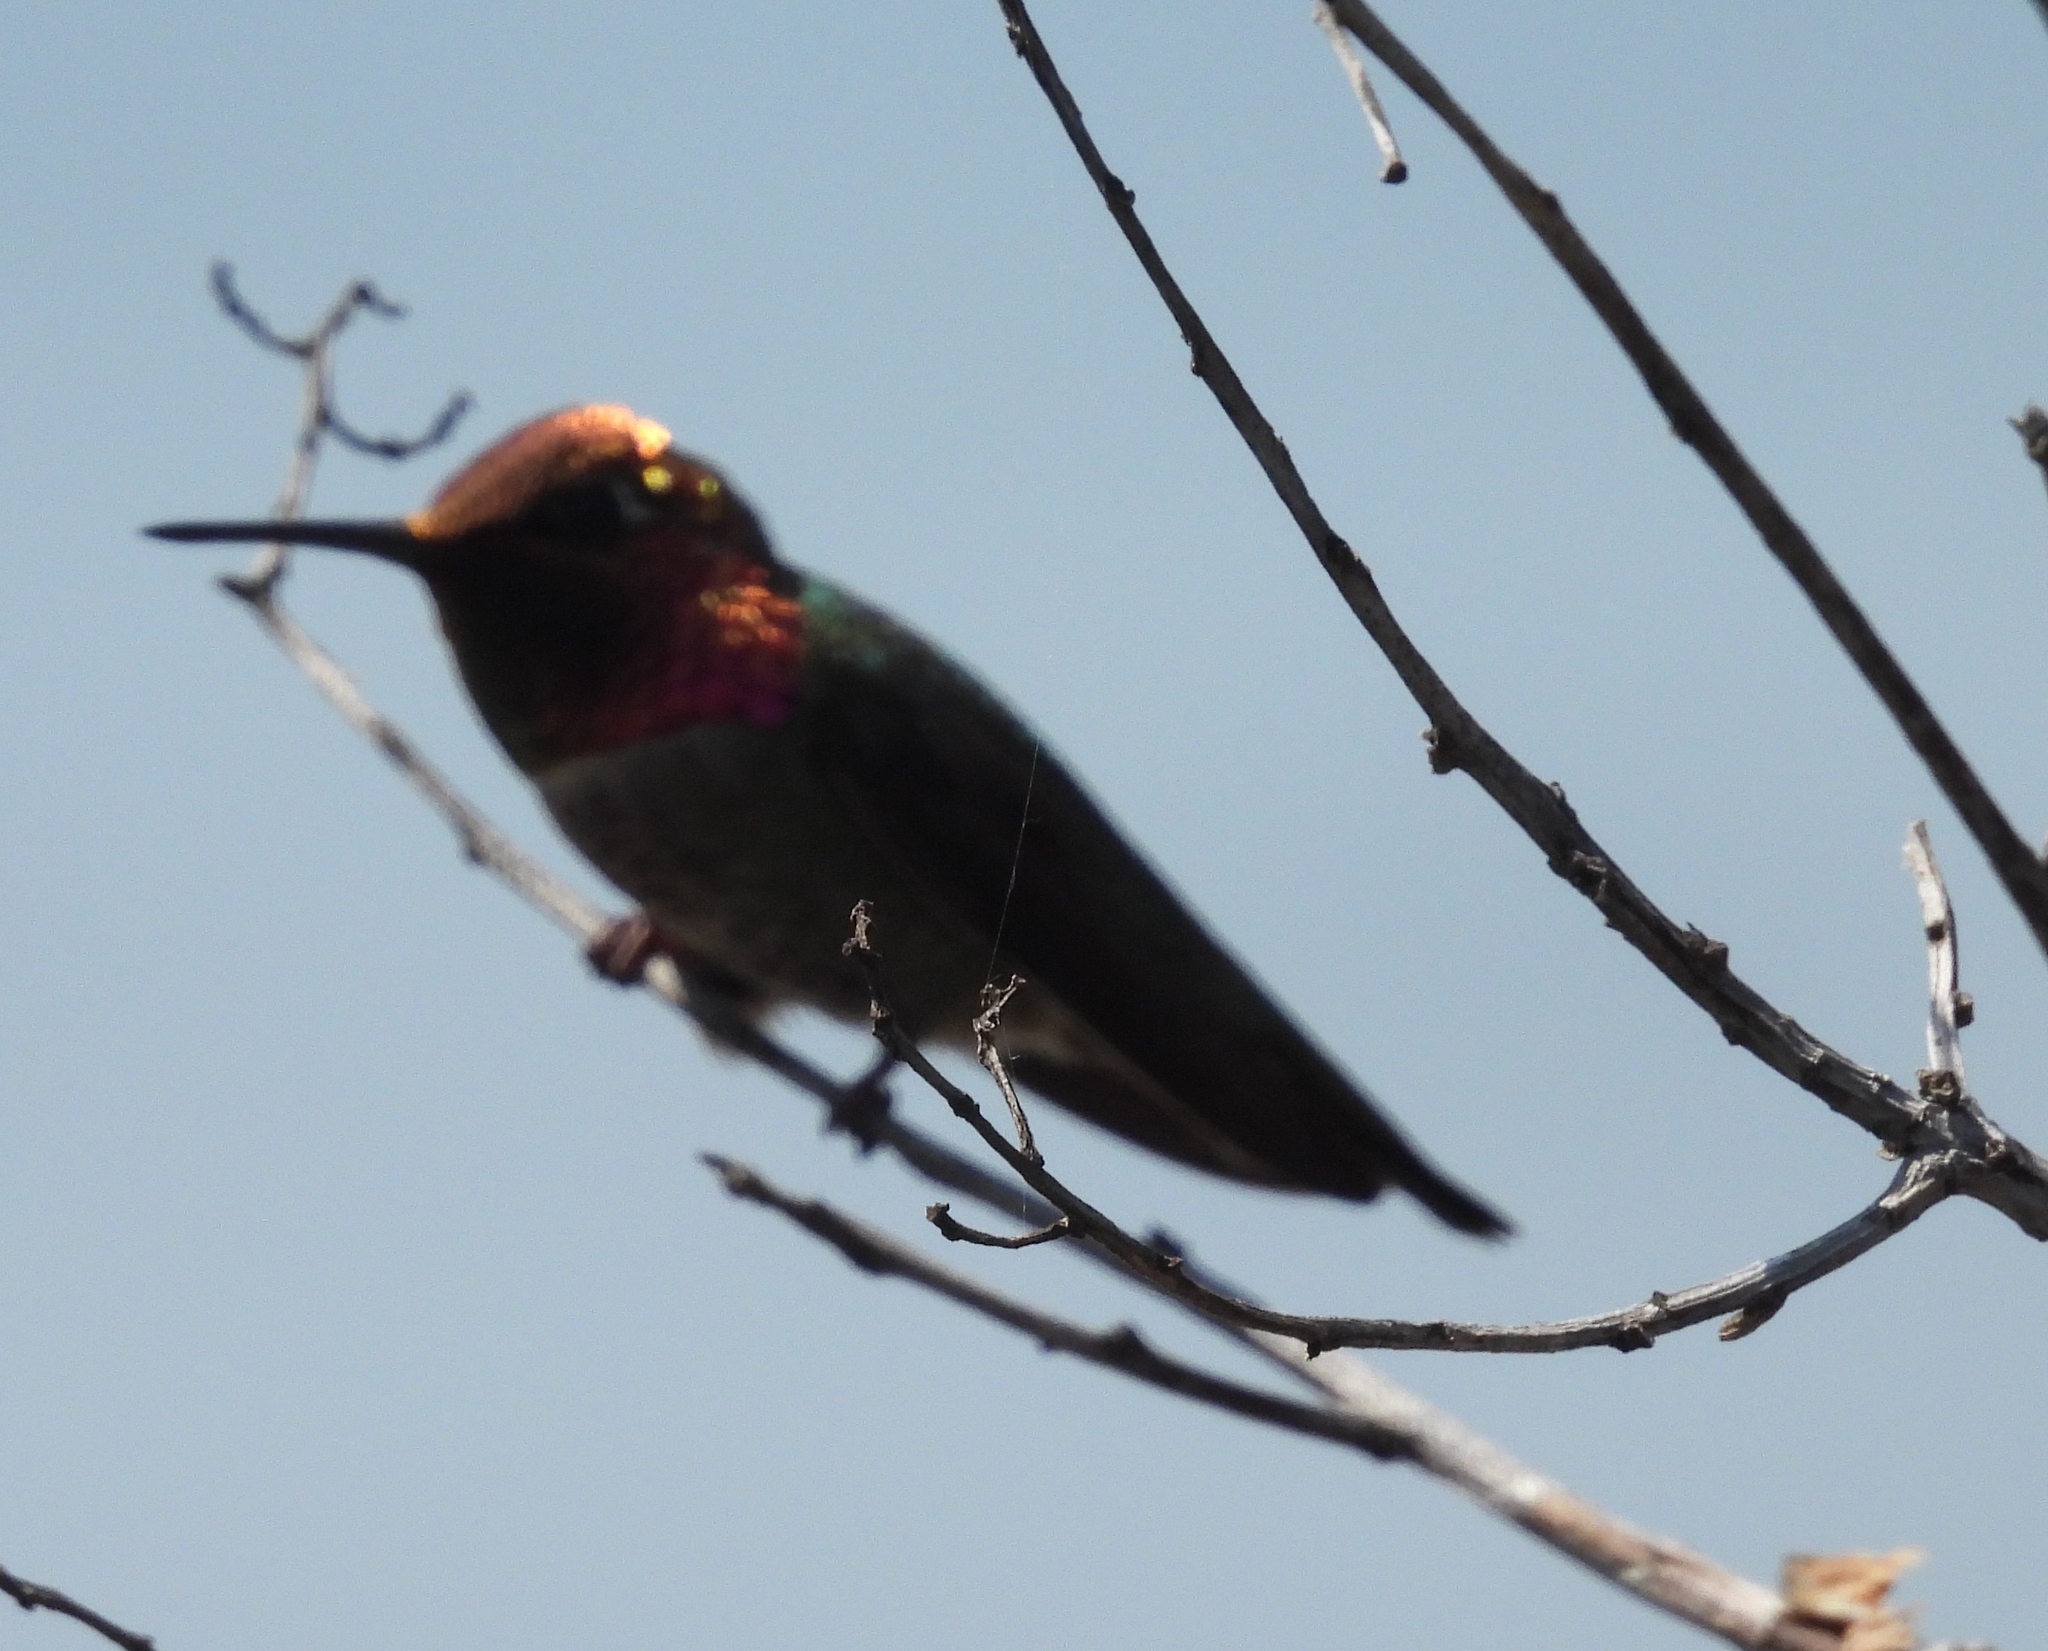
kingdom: Animalia
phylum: Chordata
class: Aves
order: Apodiformes
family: Trochilidae
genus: Calypte
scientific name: Calypte anna
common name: Anna's hummingbird
